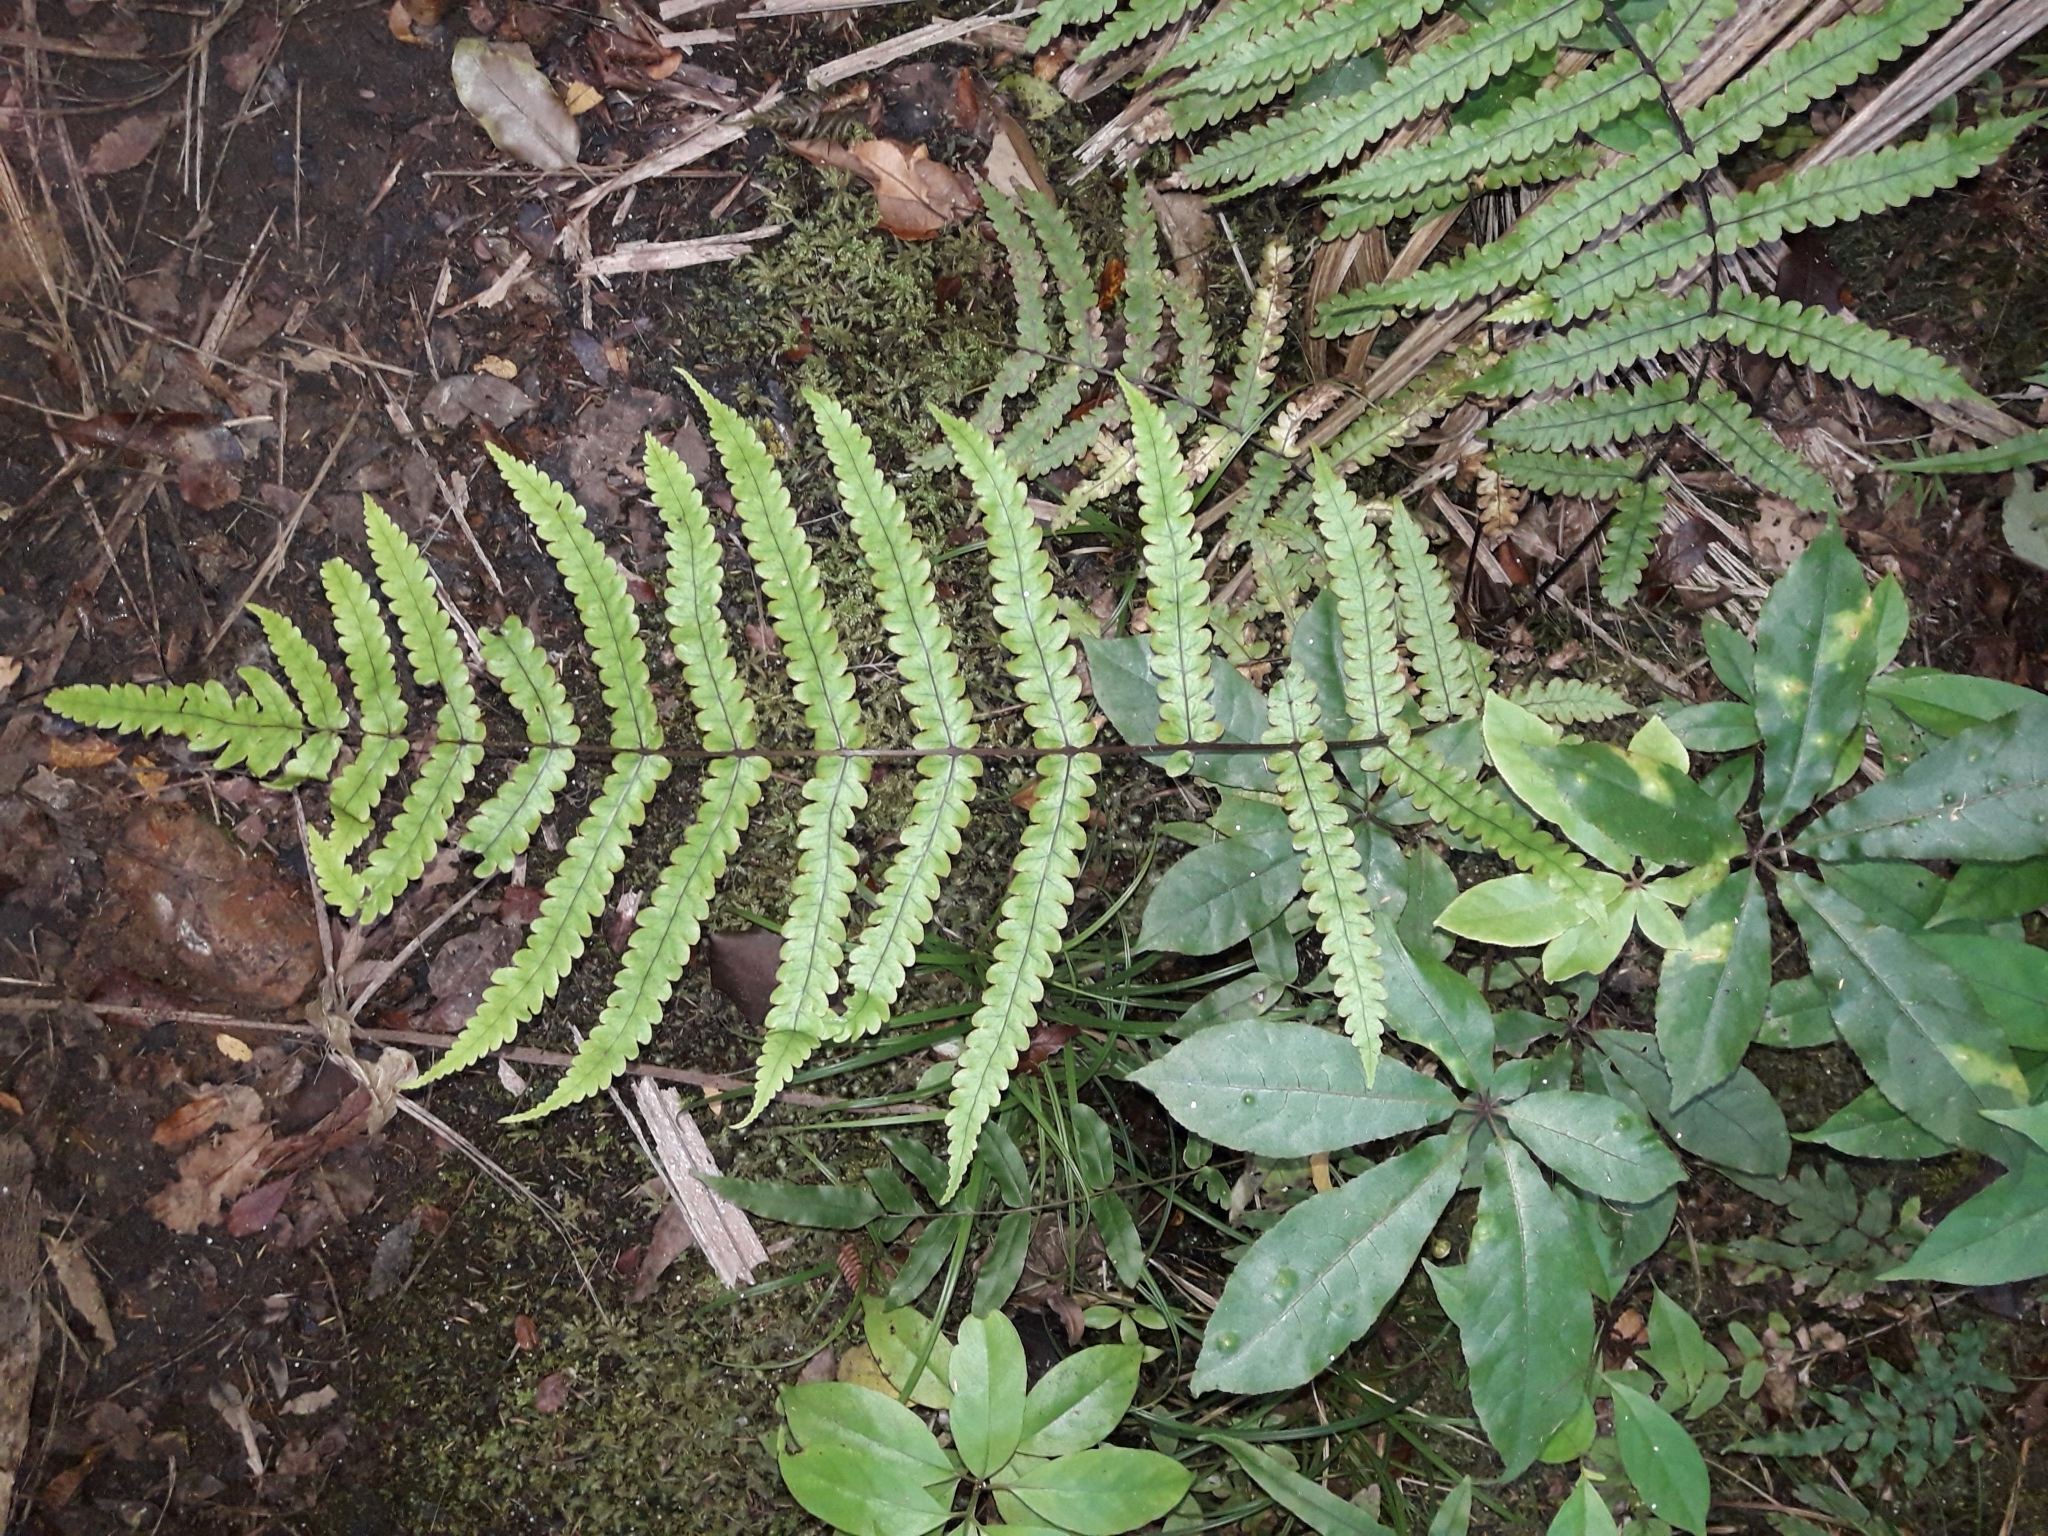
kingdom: Plantae
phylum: Tracheophyta
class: Polypodiopsida
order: Polypodiales
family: Thelypteridaceae
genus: Pakau
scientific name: Pakau pennigera
